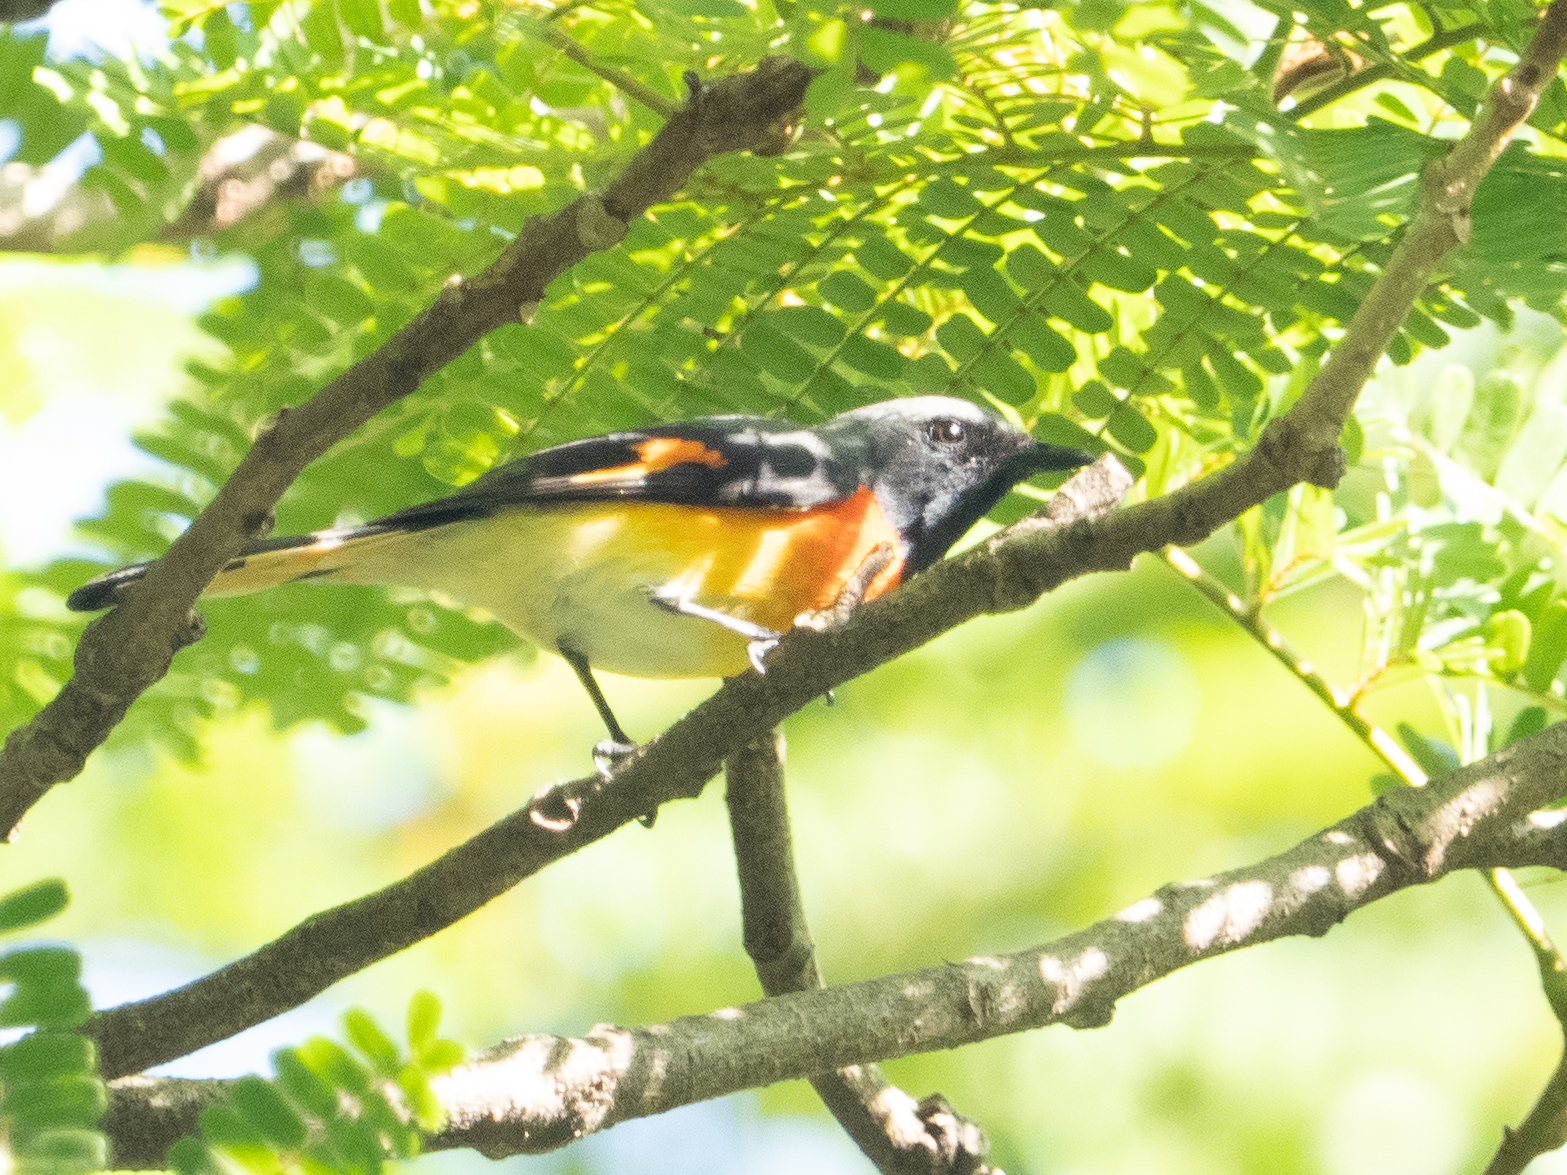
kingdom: Animalia
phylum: Chordata
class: Aves
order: Passeriformes
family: Campephagidae
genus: Pericrocotus
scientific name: Pericrocotus cinnamomeus
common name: Small minivet
